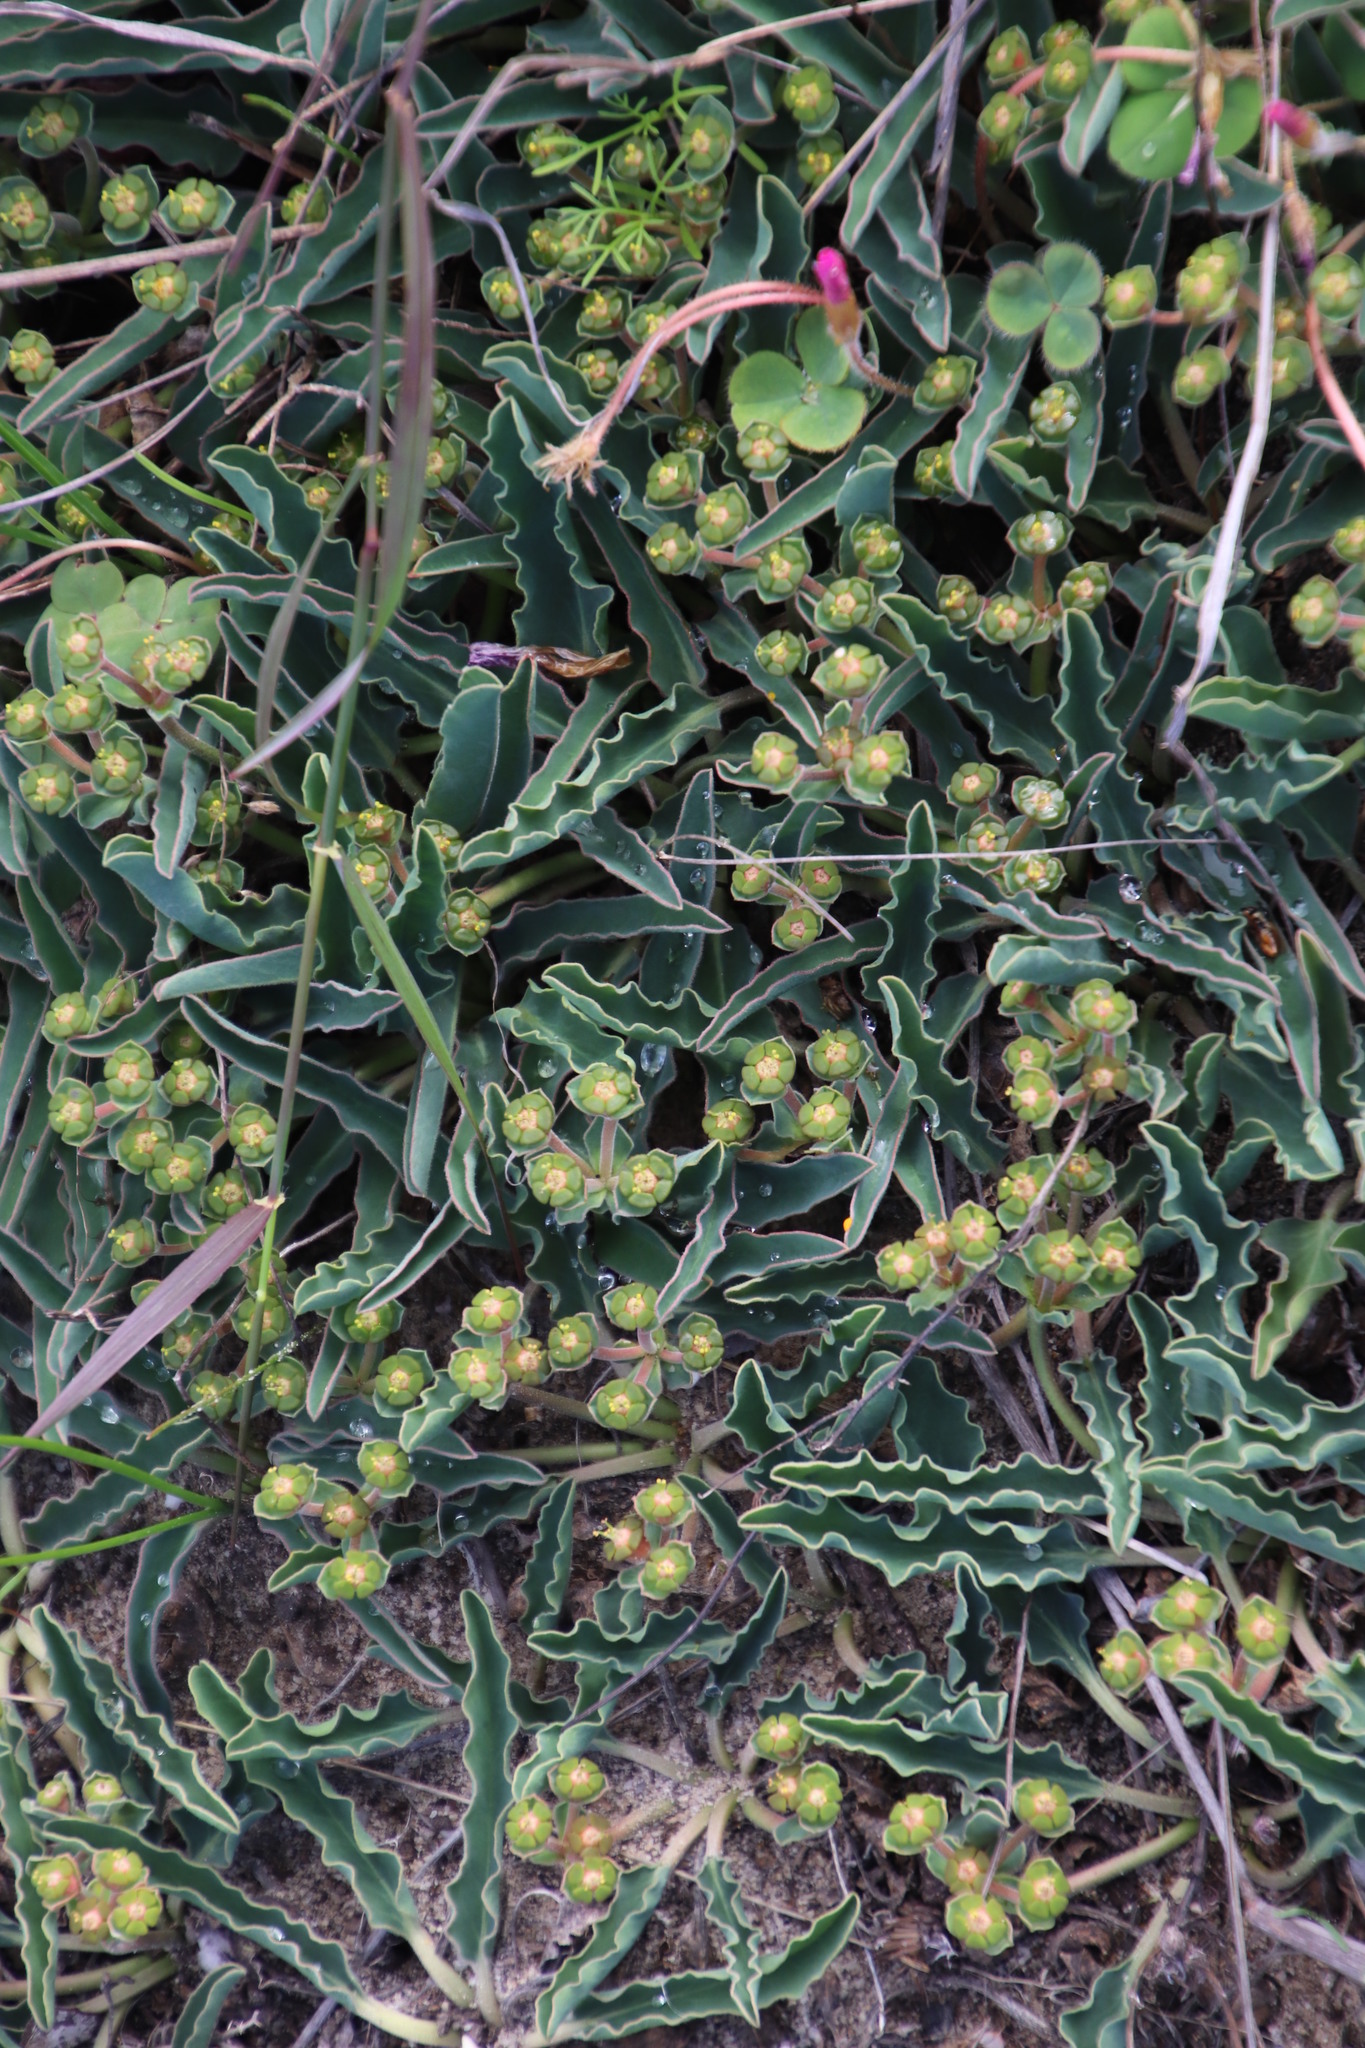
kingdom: Plantae
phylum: Tracheophyta
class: Magnoliopsida
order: Malpighiales
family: Euphorbiaceae
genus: Euphorbia
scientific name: Euphorbia tuberosa
